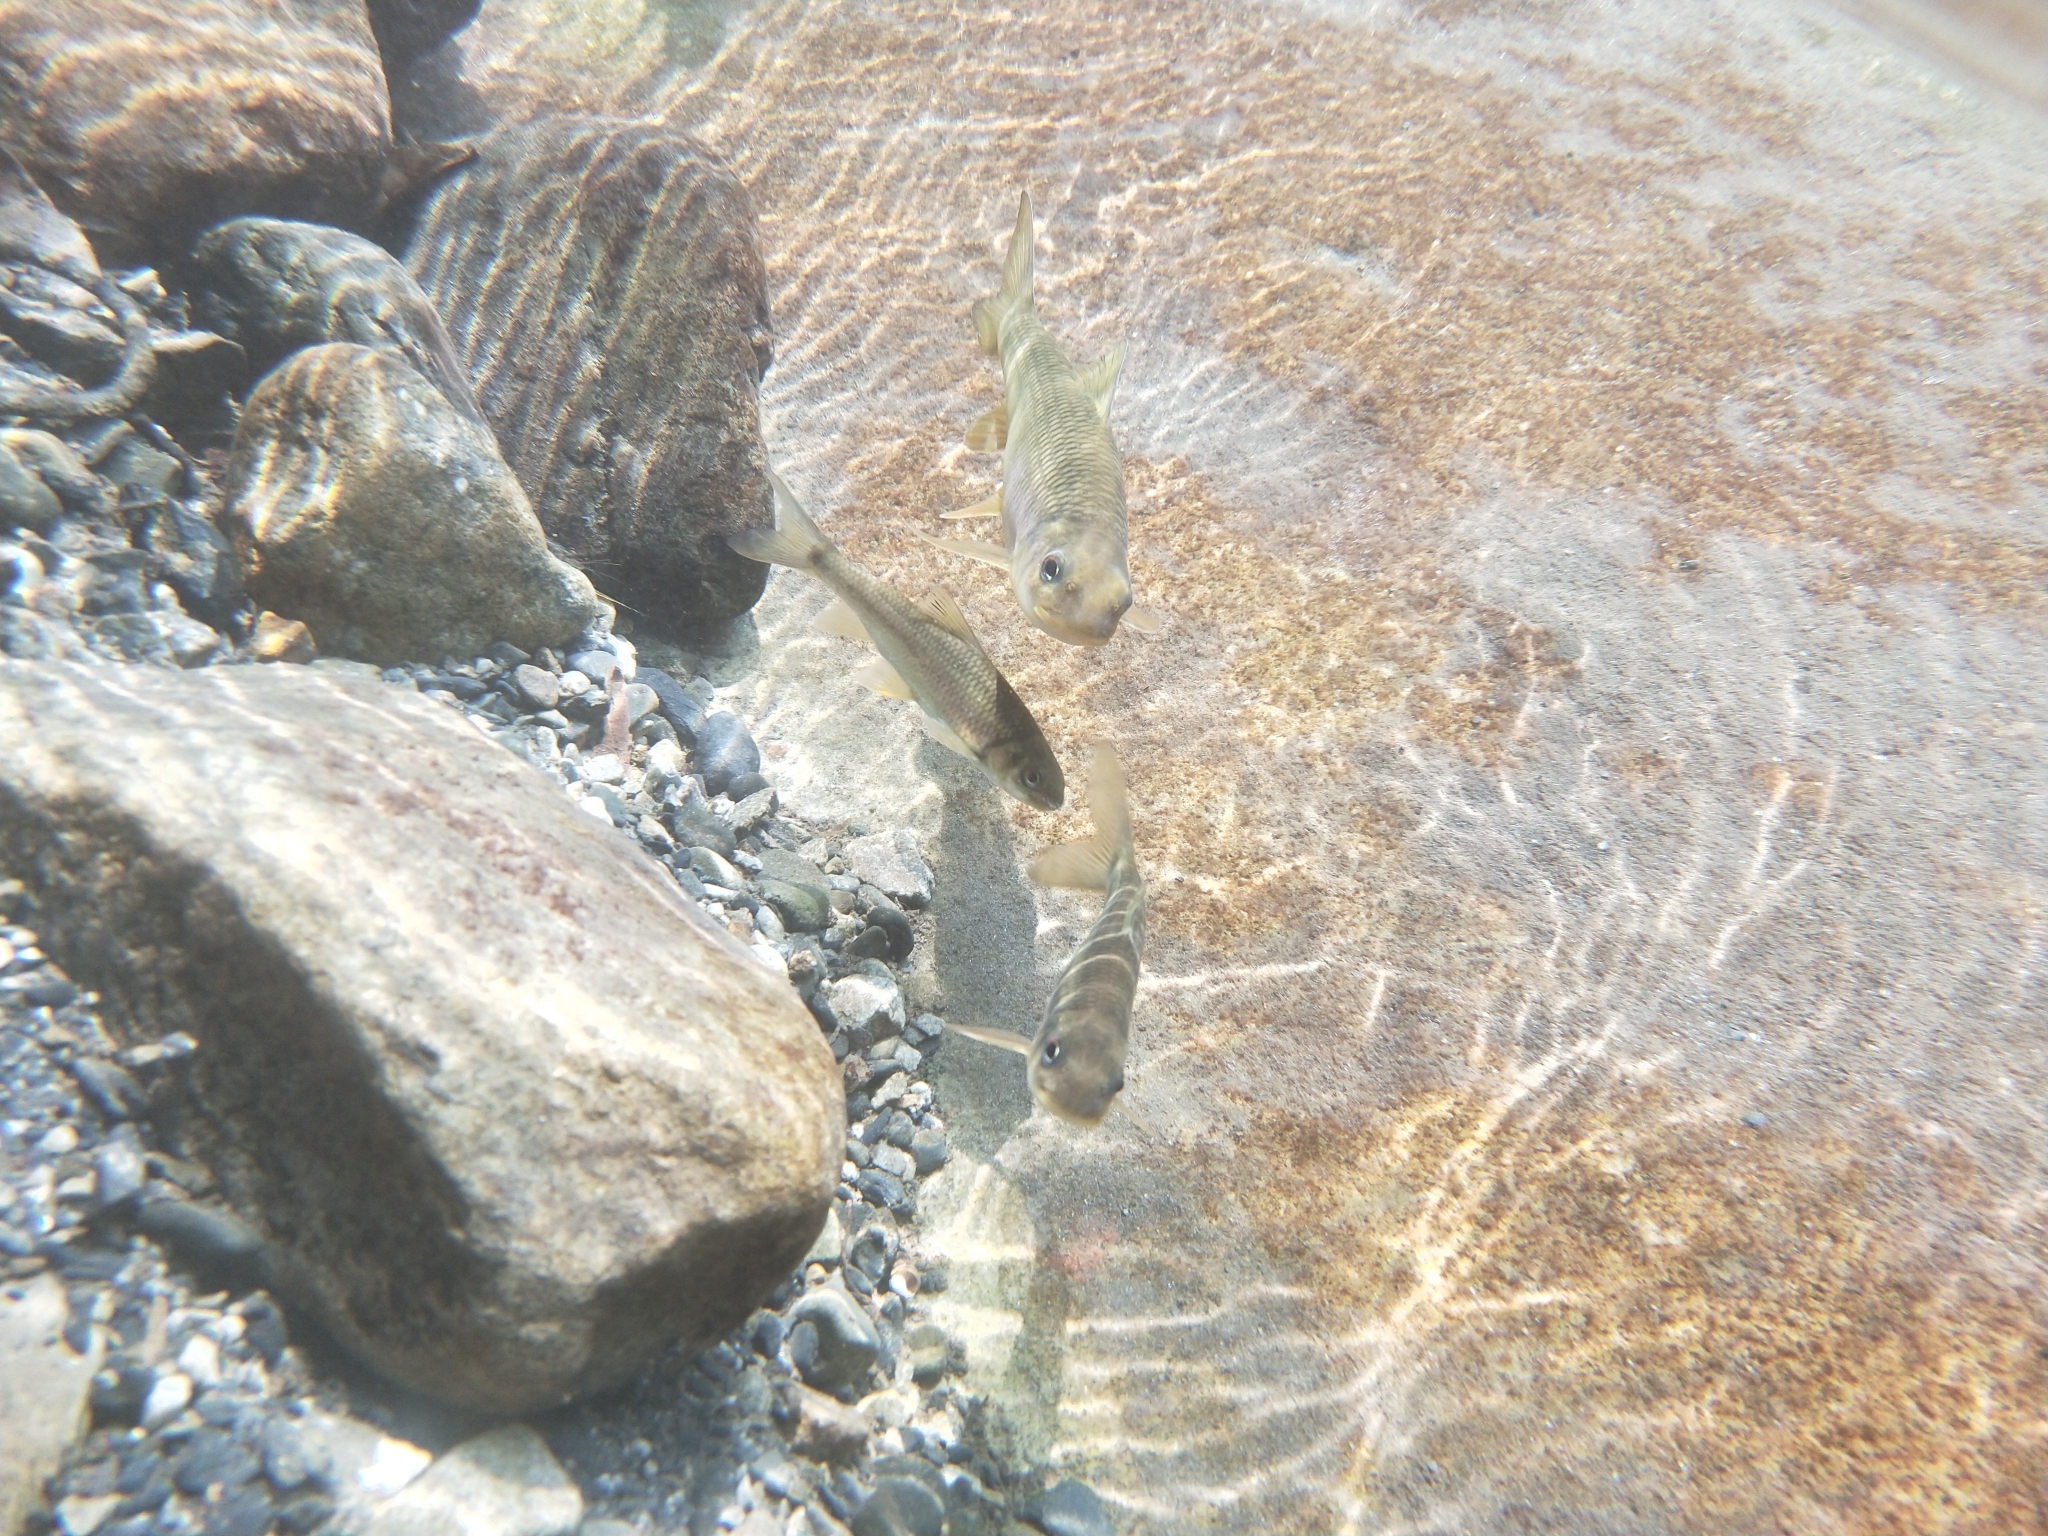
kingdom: Animalia
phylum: Chordata
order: Cypriniformes
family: Cyprinidae
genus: Onychostoma
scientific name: Onychostoma barbatulum
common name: Taiwan shoveljaw carp
